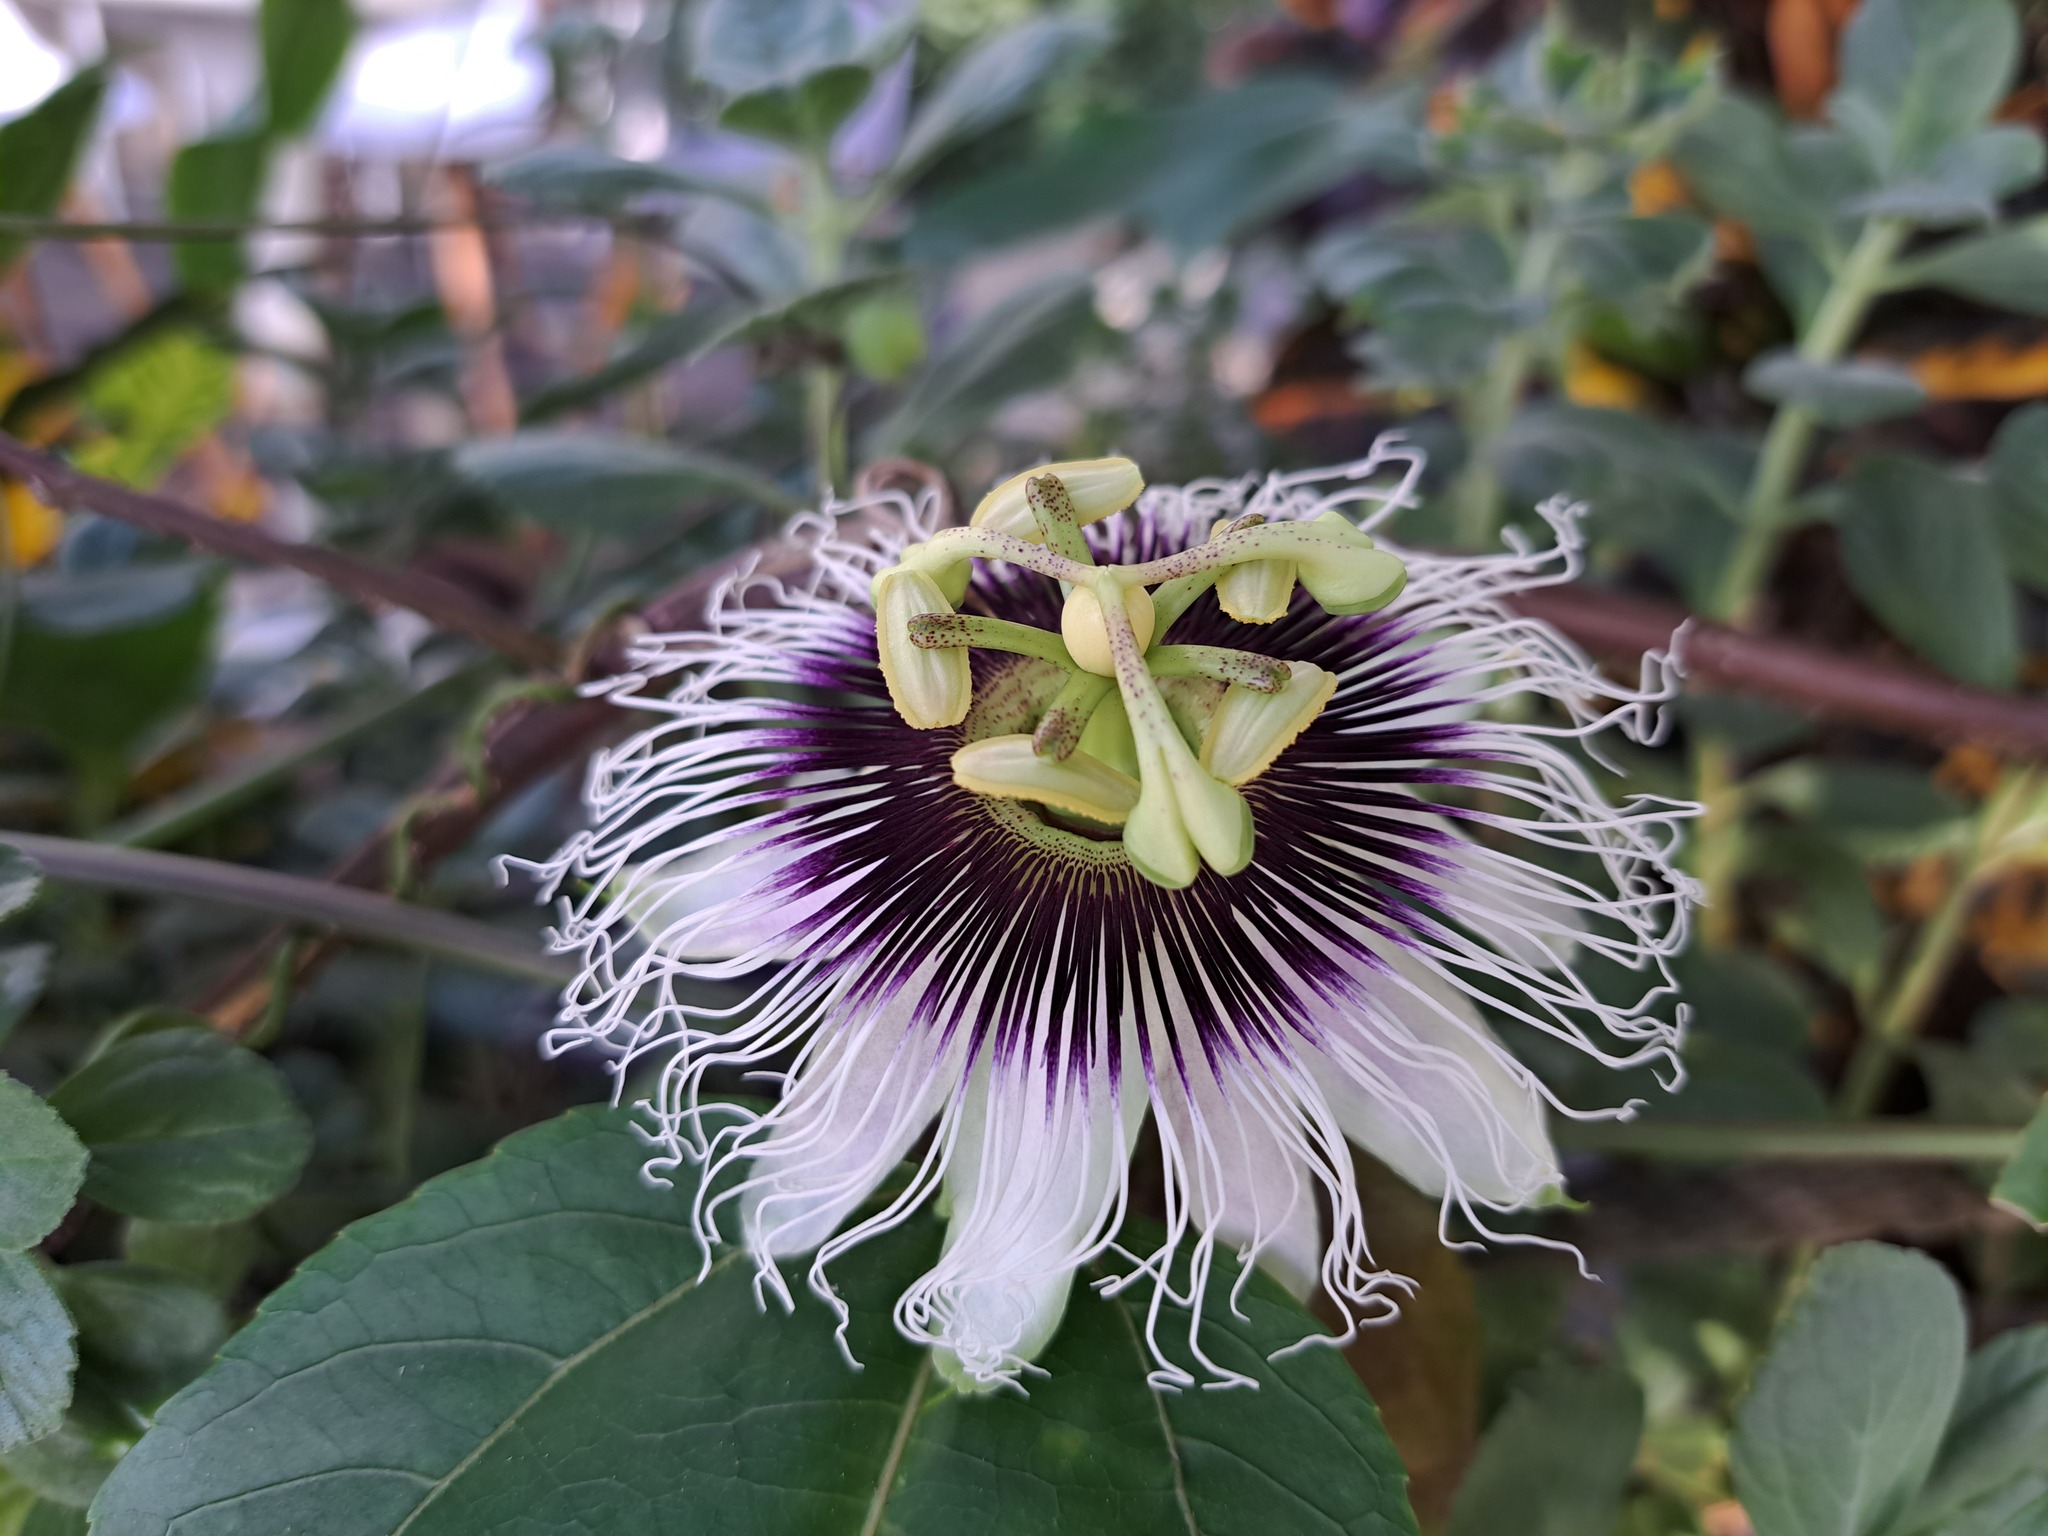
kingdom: Plantae
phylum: Tracheophyta
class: Magnoliopsida
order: Malpighiales
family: Passifloraceae
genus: Passiflora
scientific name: Passiflora edulis
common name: Purple granadilla
